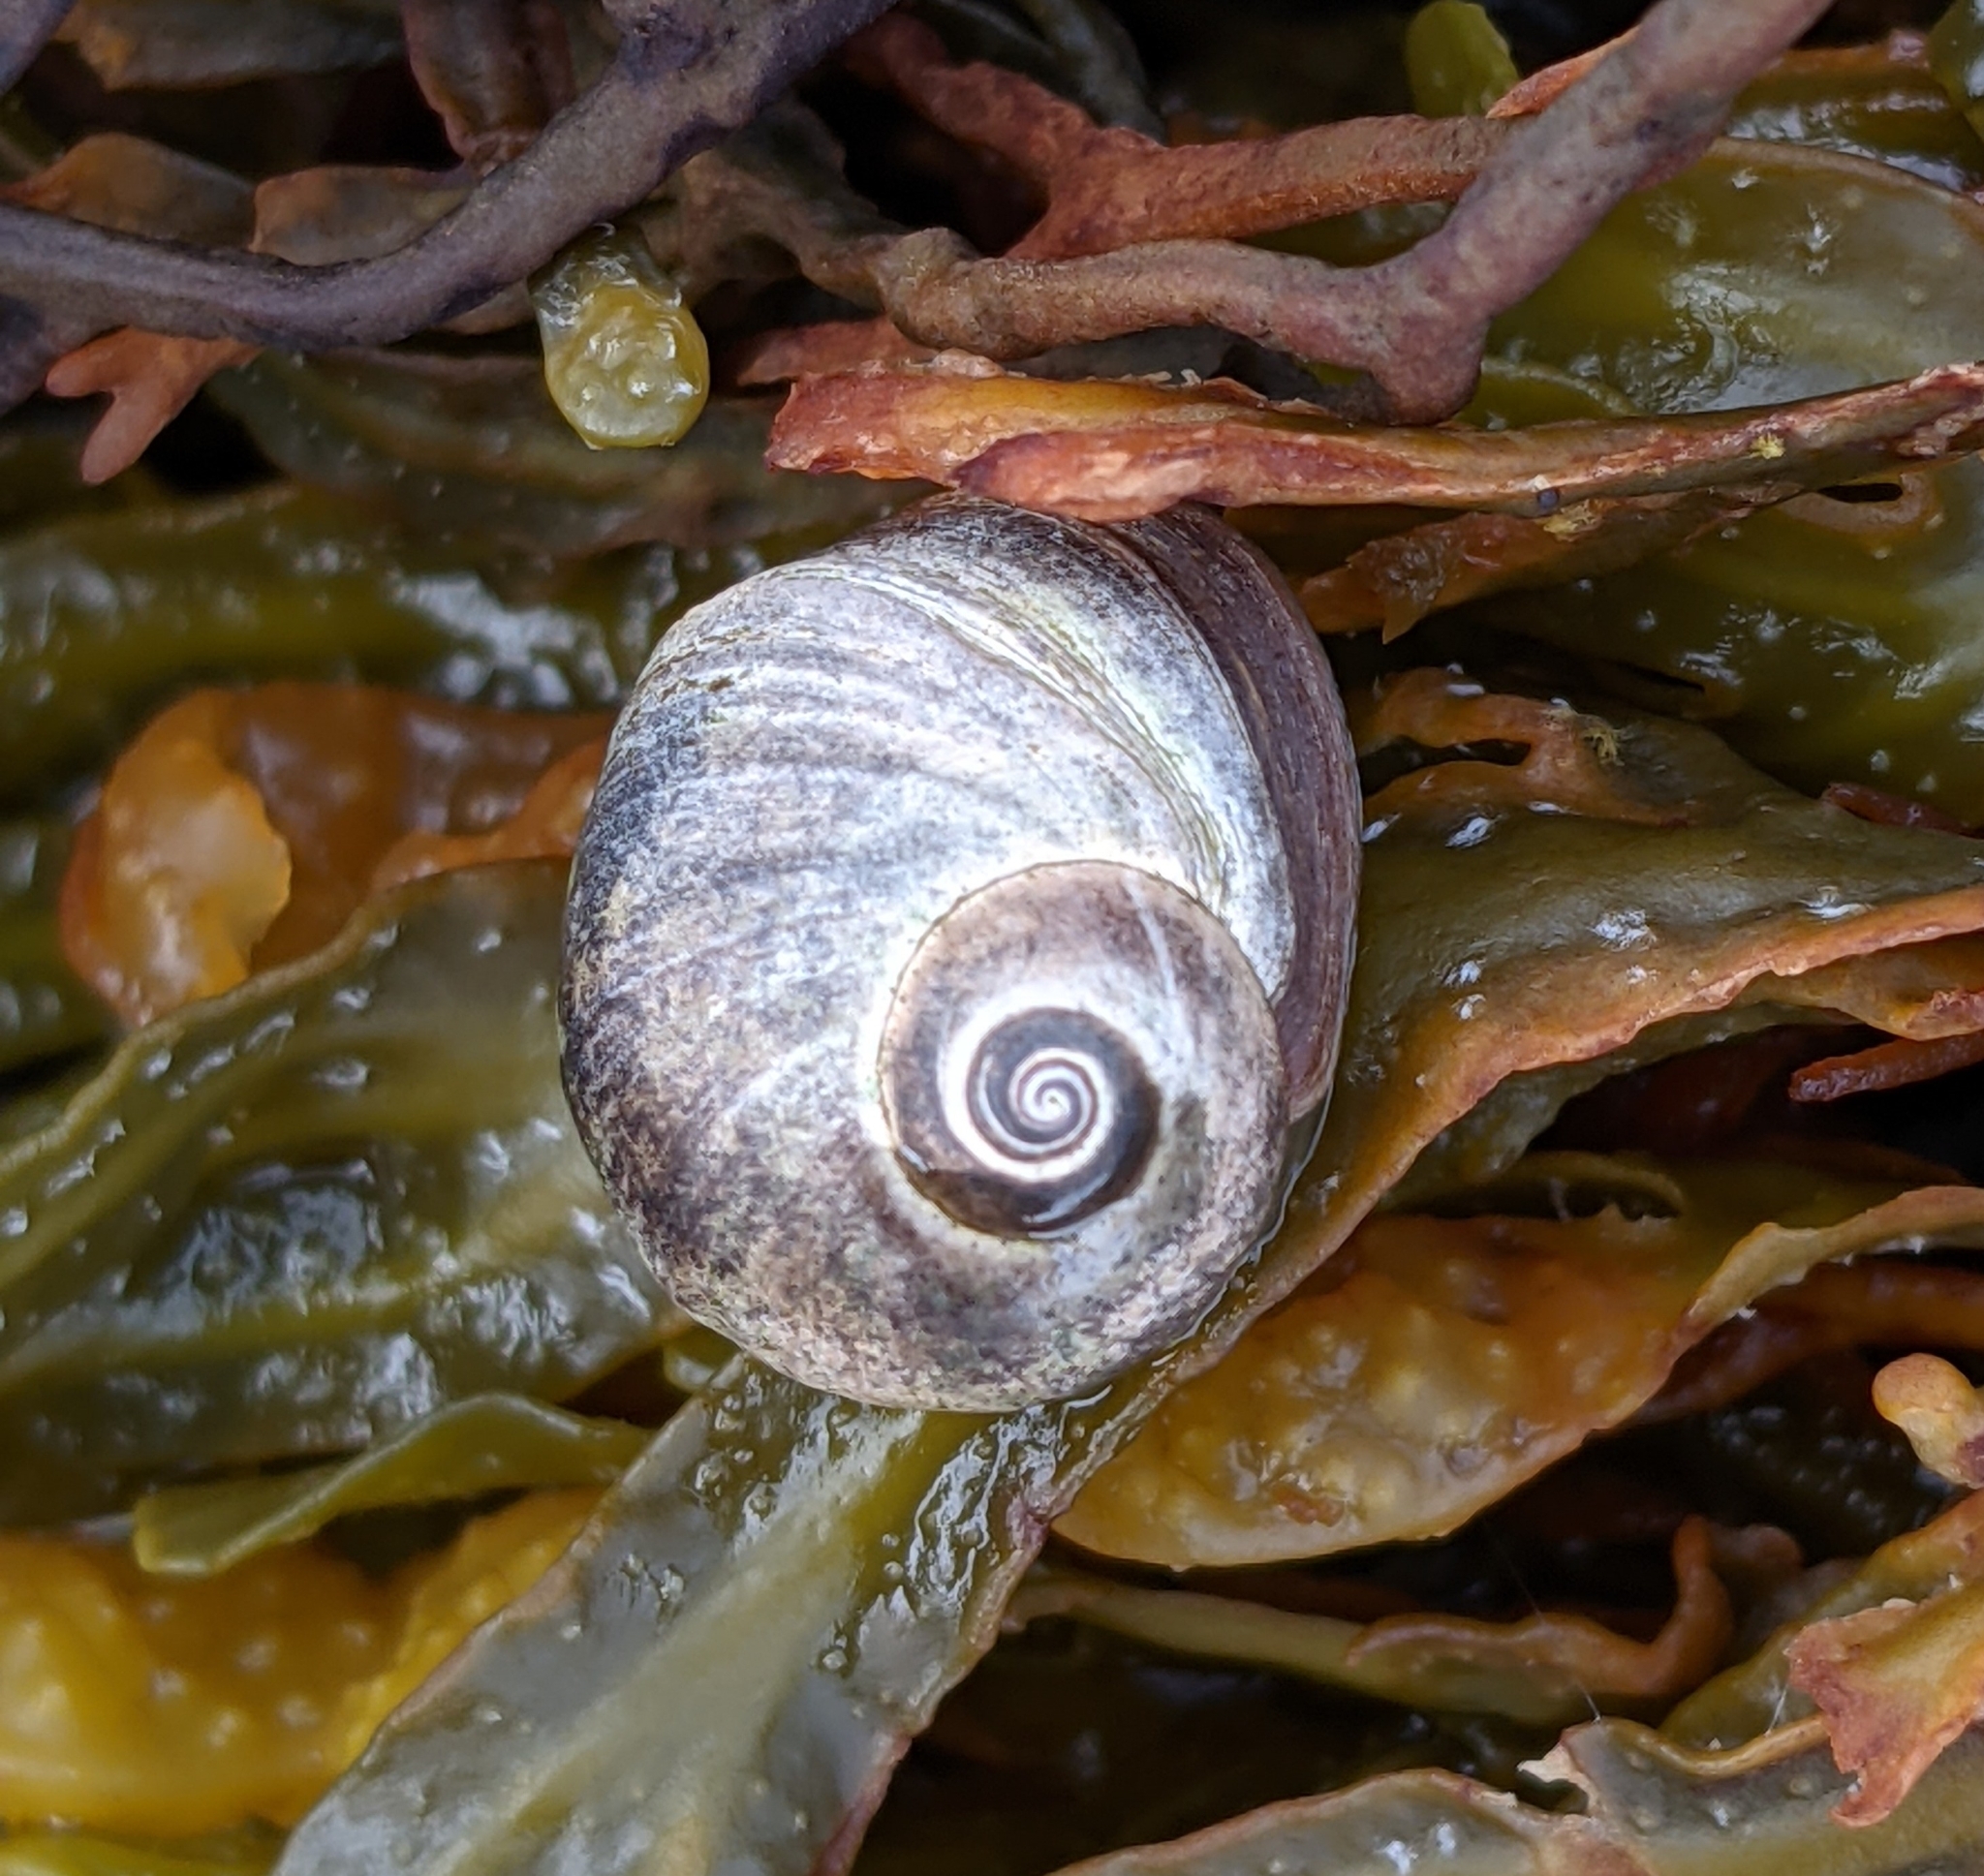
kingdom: Animalia
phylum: Mollusca
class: Gastropoda
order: Littorinimorpha
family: Littorinidae
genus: Littorina
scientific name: Littorina obtusata
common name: Flat periwinkle
